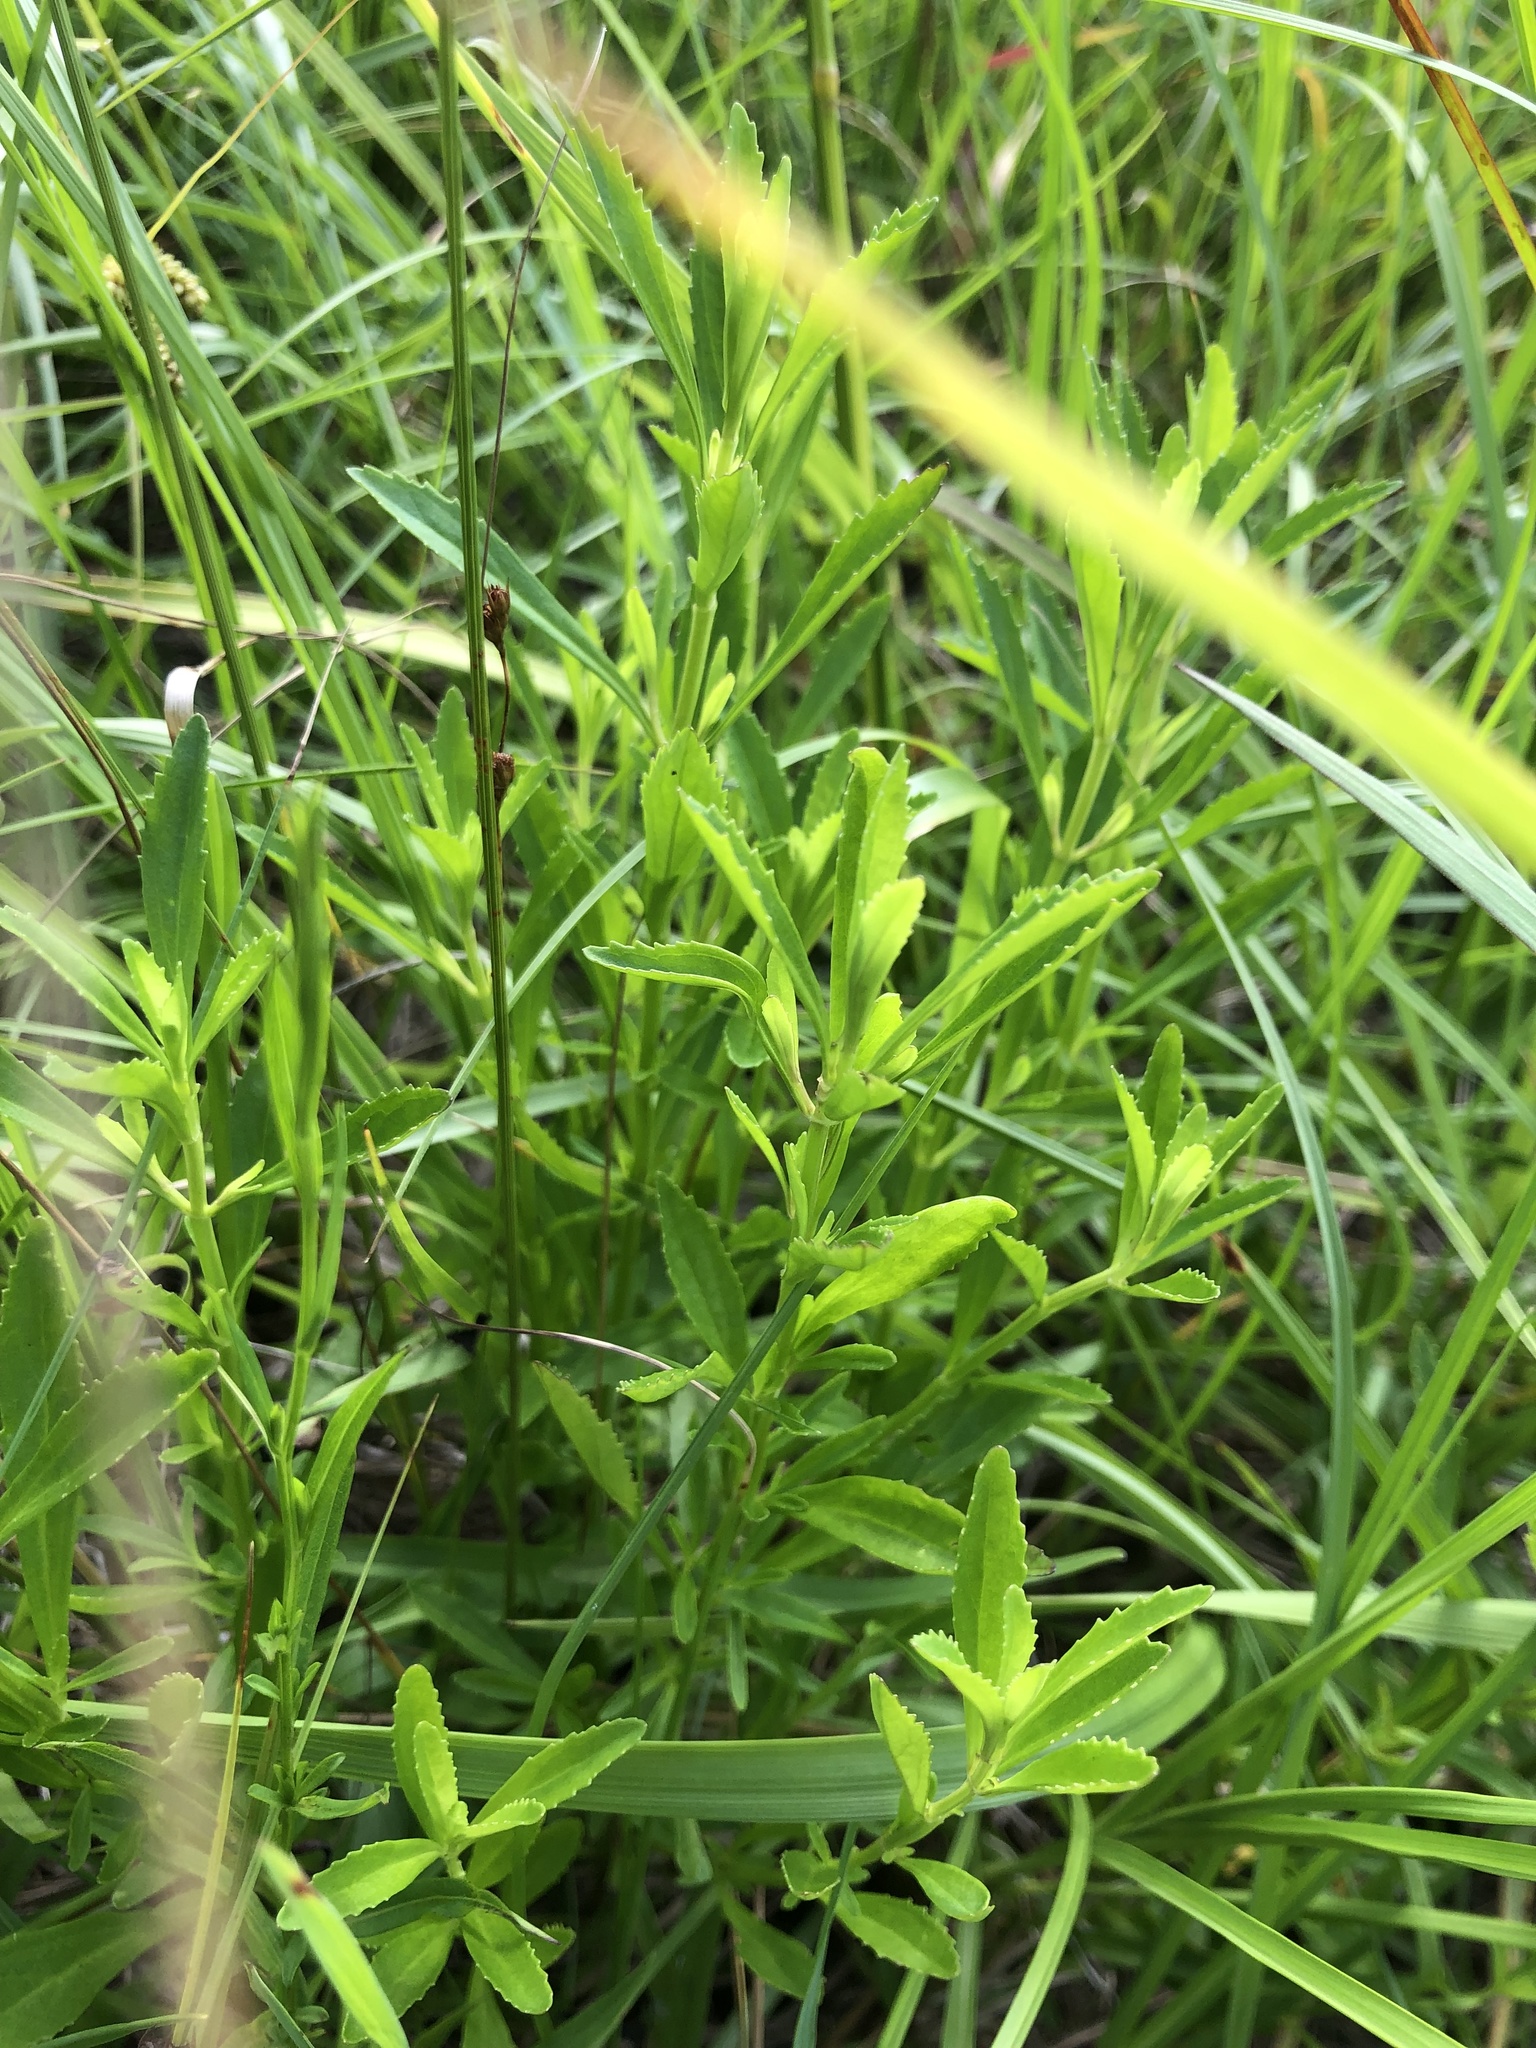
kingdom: Plantae
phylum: Tracheophyta
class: Magnoliopsida
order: Lamiales
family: Plantaginaceae
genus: Mecardonia
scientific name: Mecardonia acuminata
